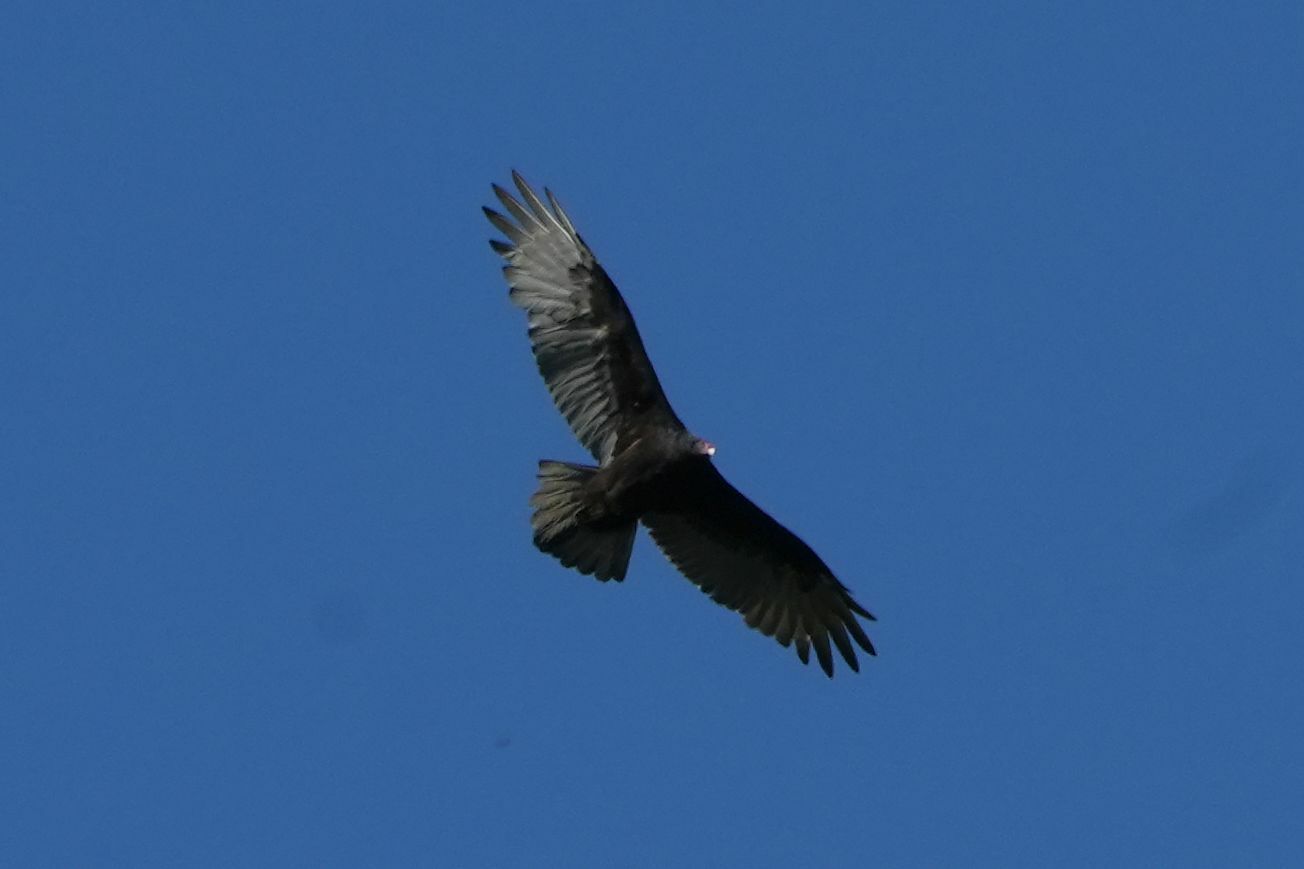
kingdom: Animalia
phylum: Chordata
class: Aves
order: Accipitriformes
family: Cathartidae
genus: Cathartes
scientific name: Cathartes aura
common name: Turkey vulture
